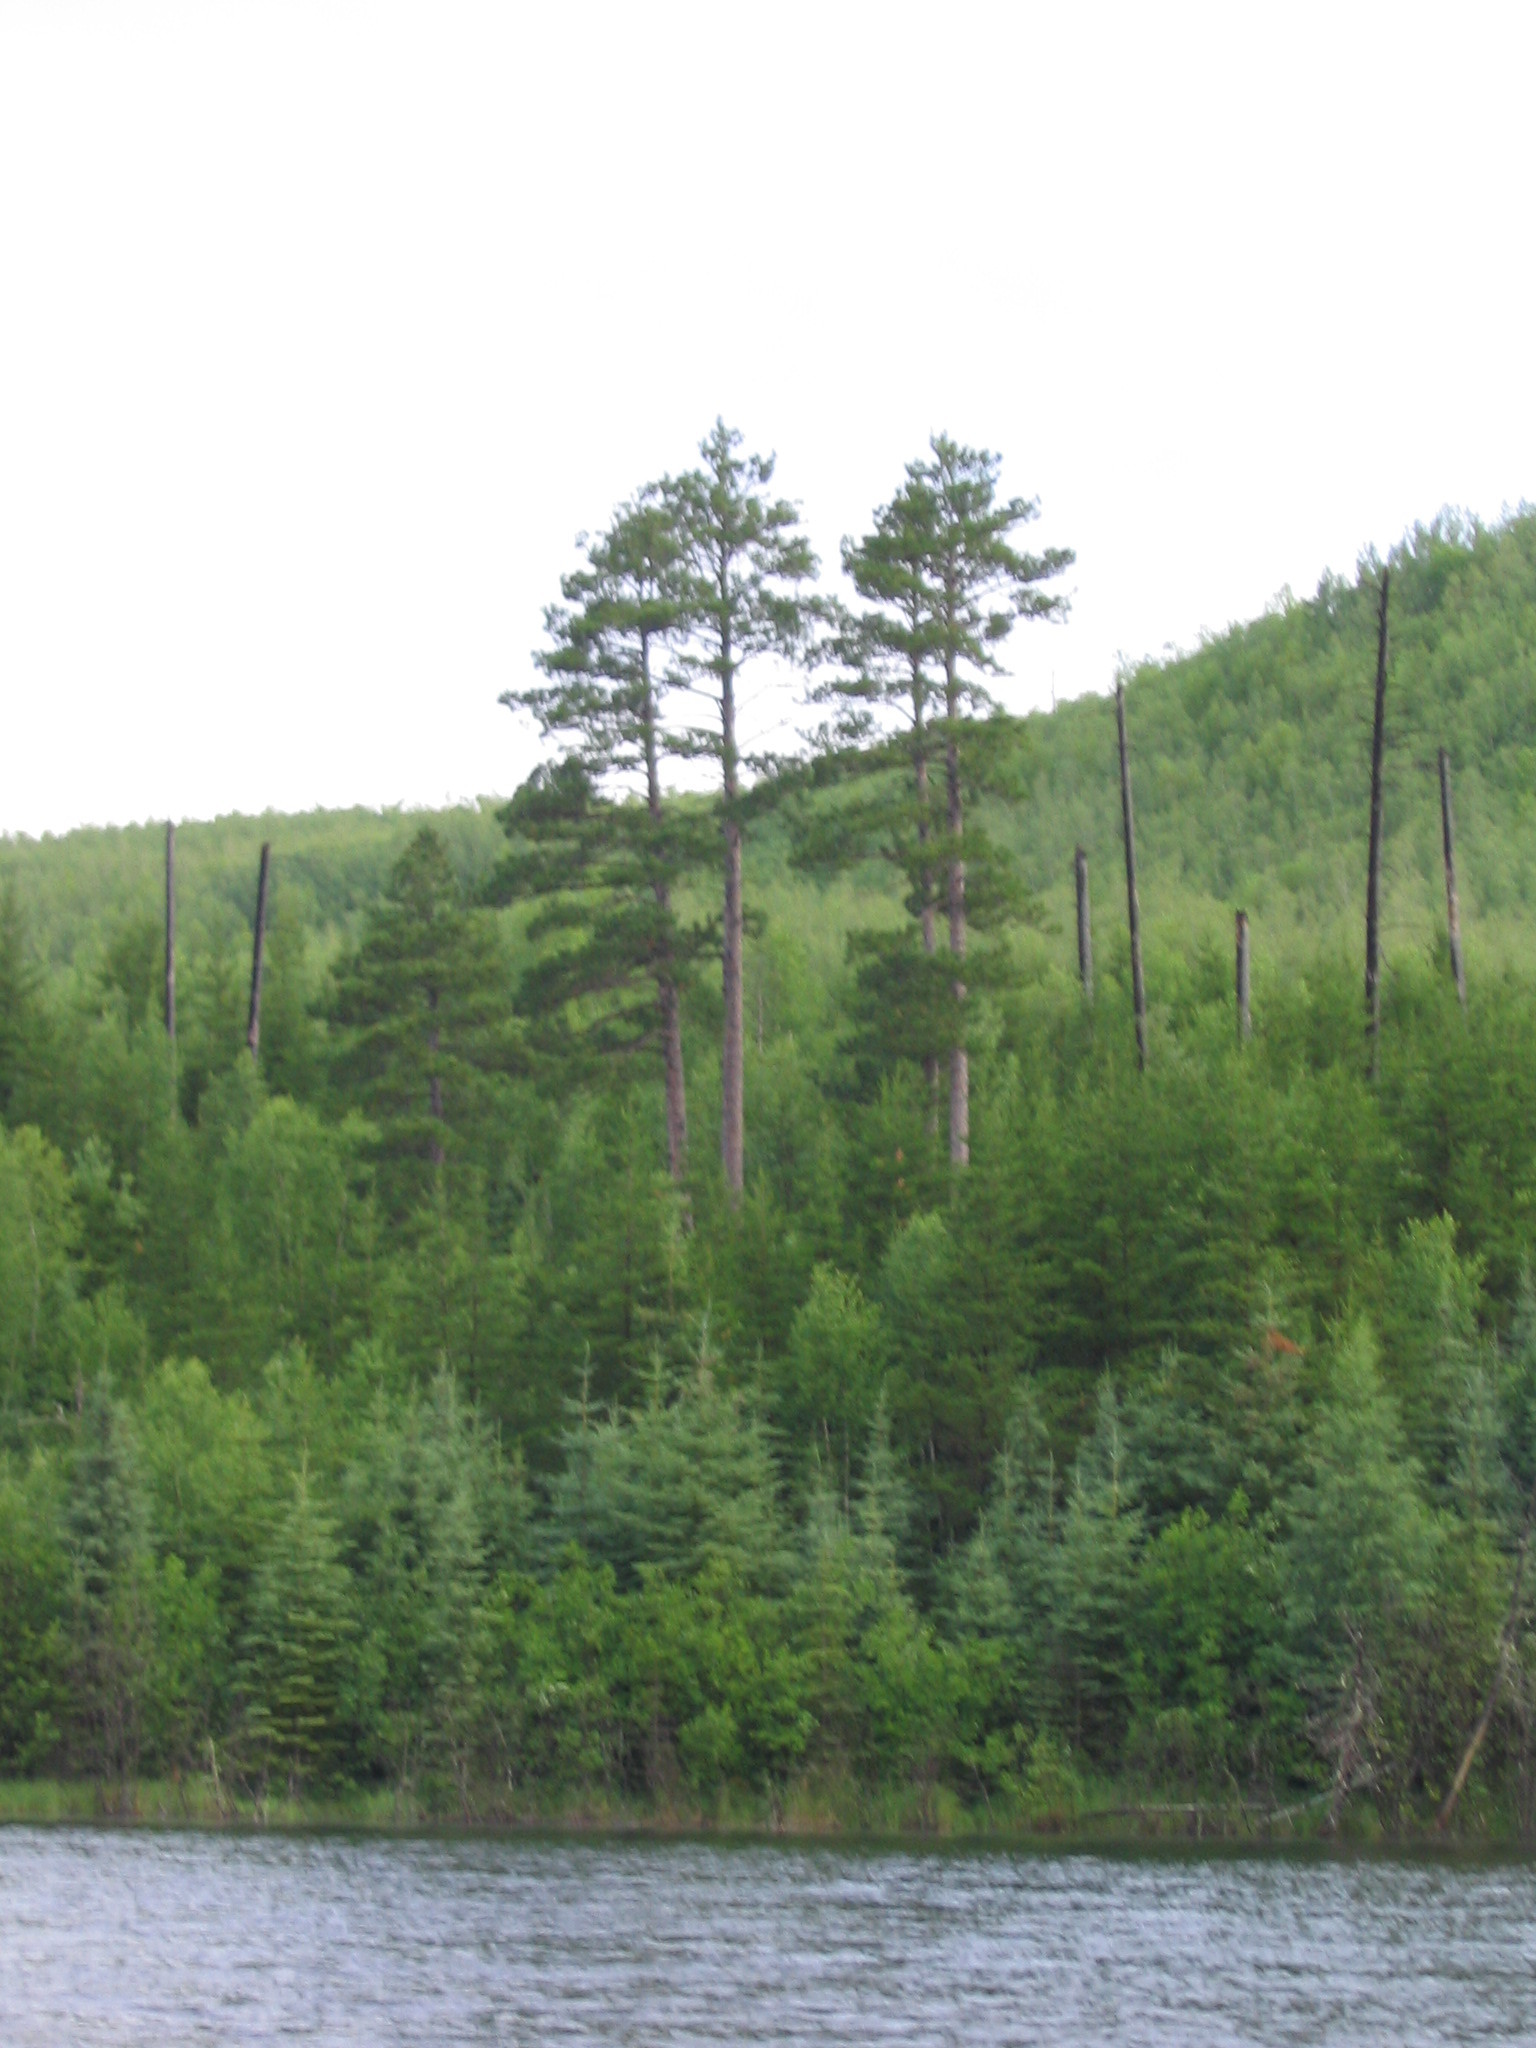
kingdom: Plantae
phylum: Tracheophyta
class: Pinopsida
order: Pinales
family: Pinaceae
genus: Pinus
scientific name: Pinus resinosa
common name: Norway pine
